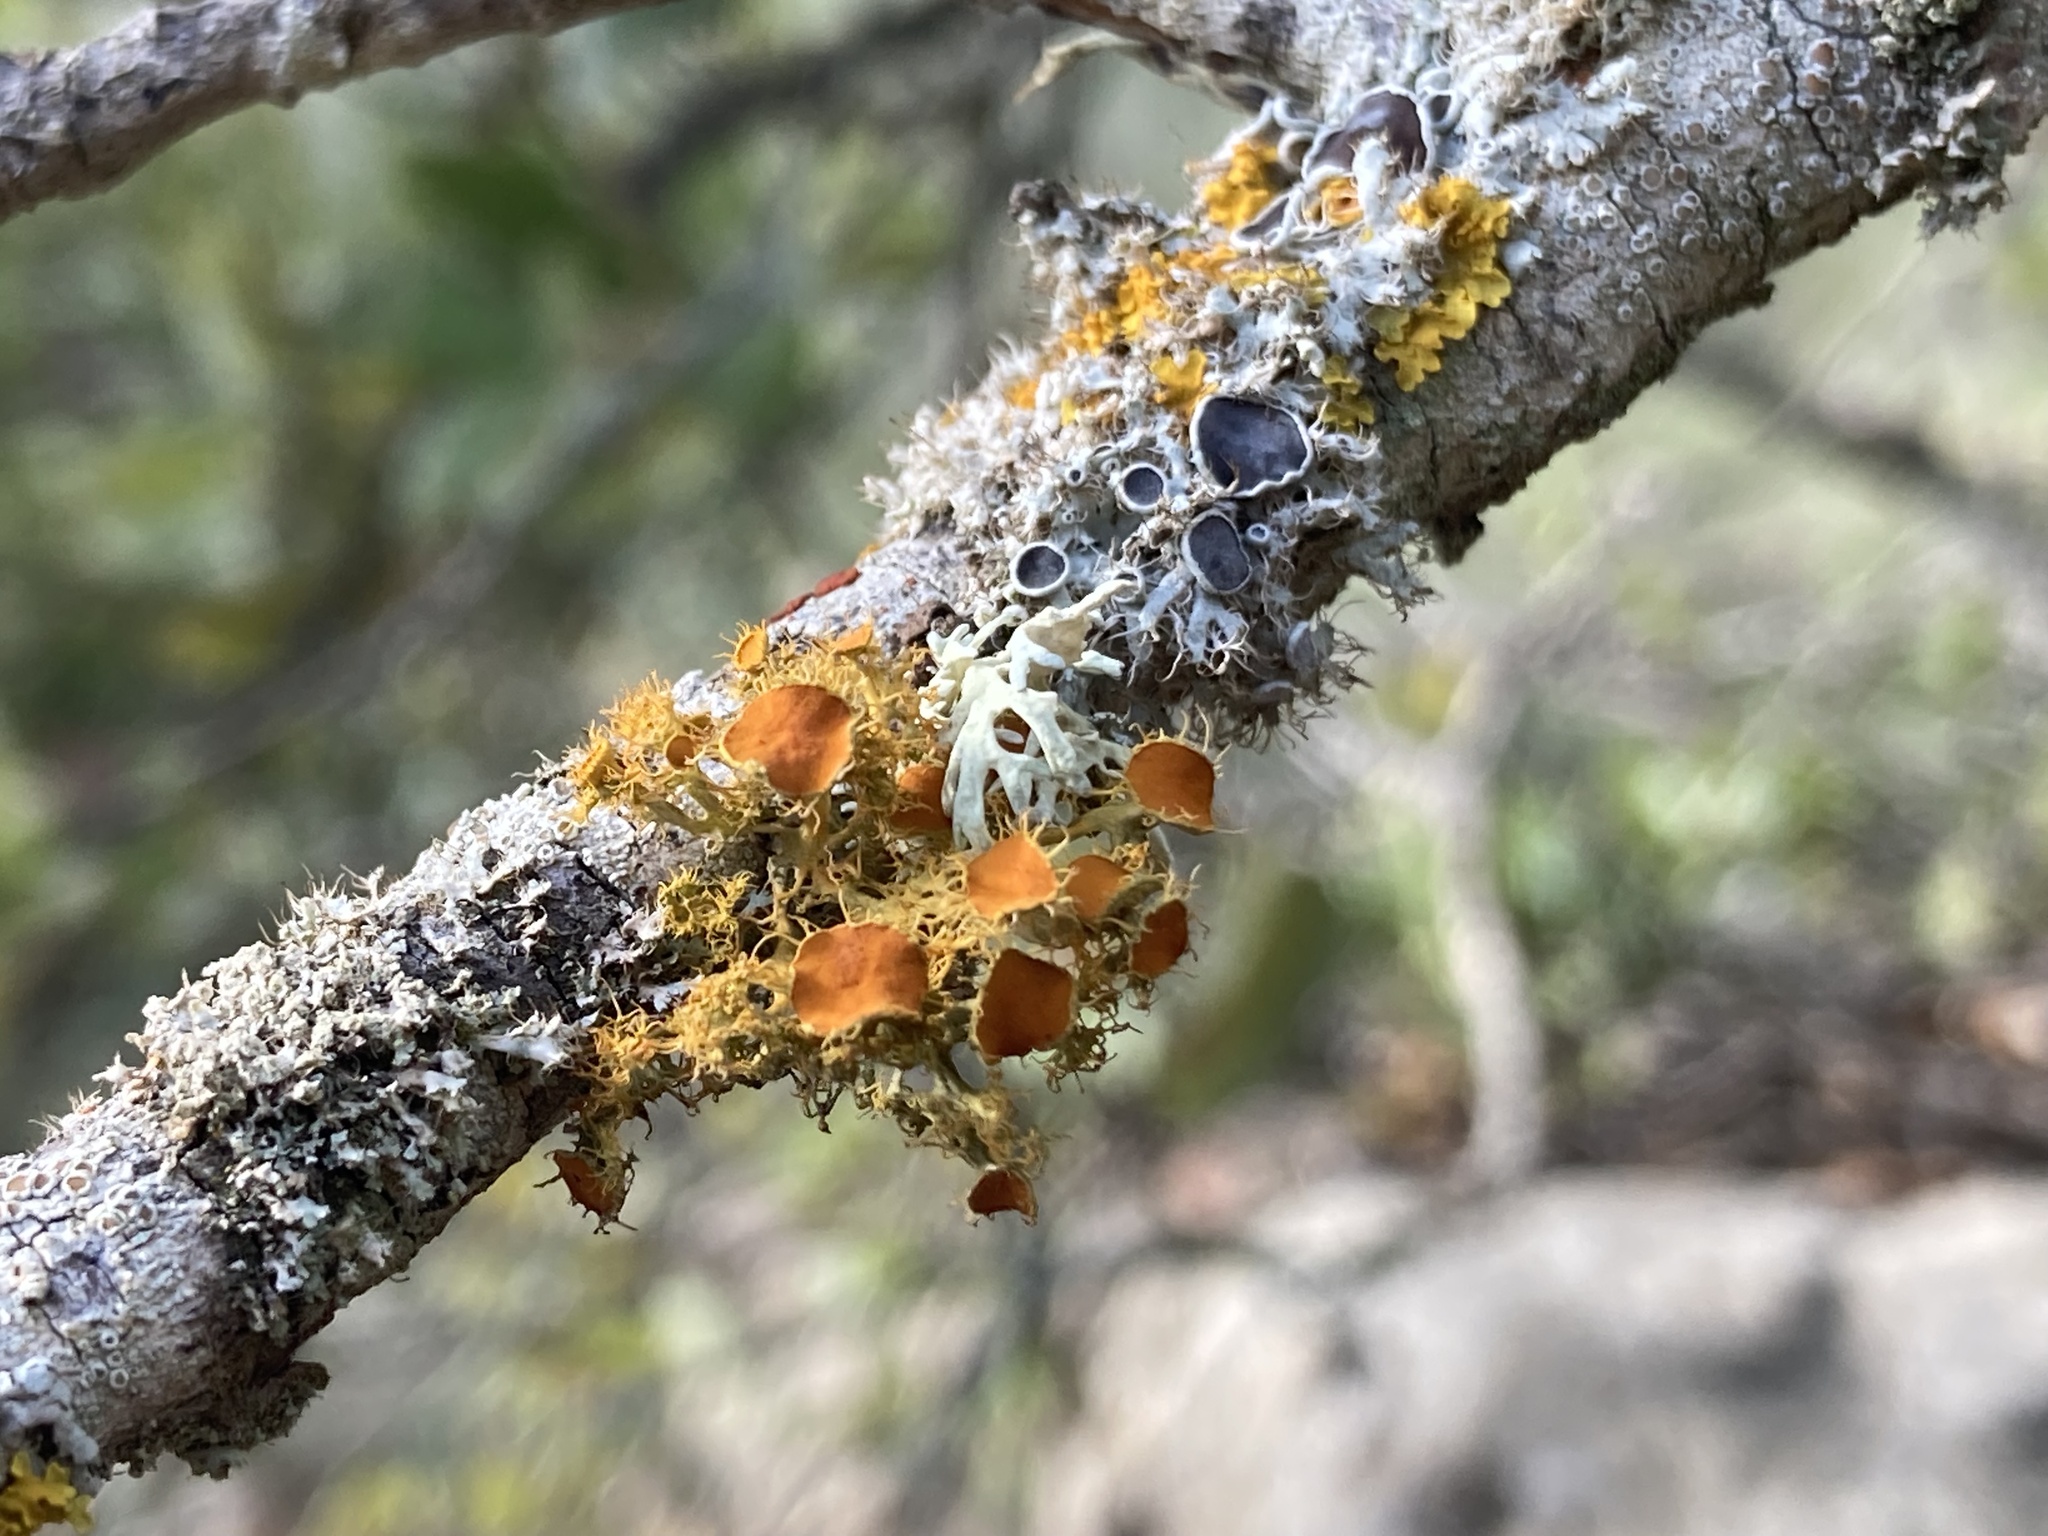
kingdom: Fungi
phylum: Ascomycota
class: Lecanoromycetes
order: Teloschistales
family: Teloschistaceae
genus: Niorma
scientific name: Niorma chrysophthalma
